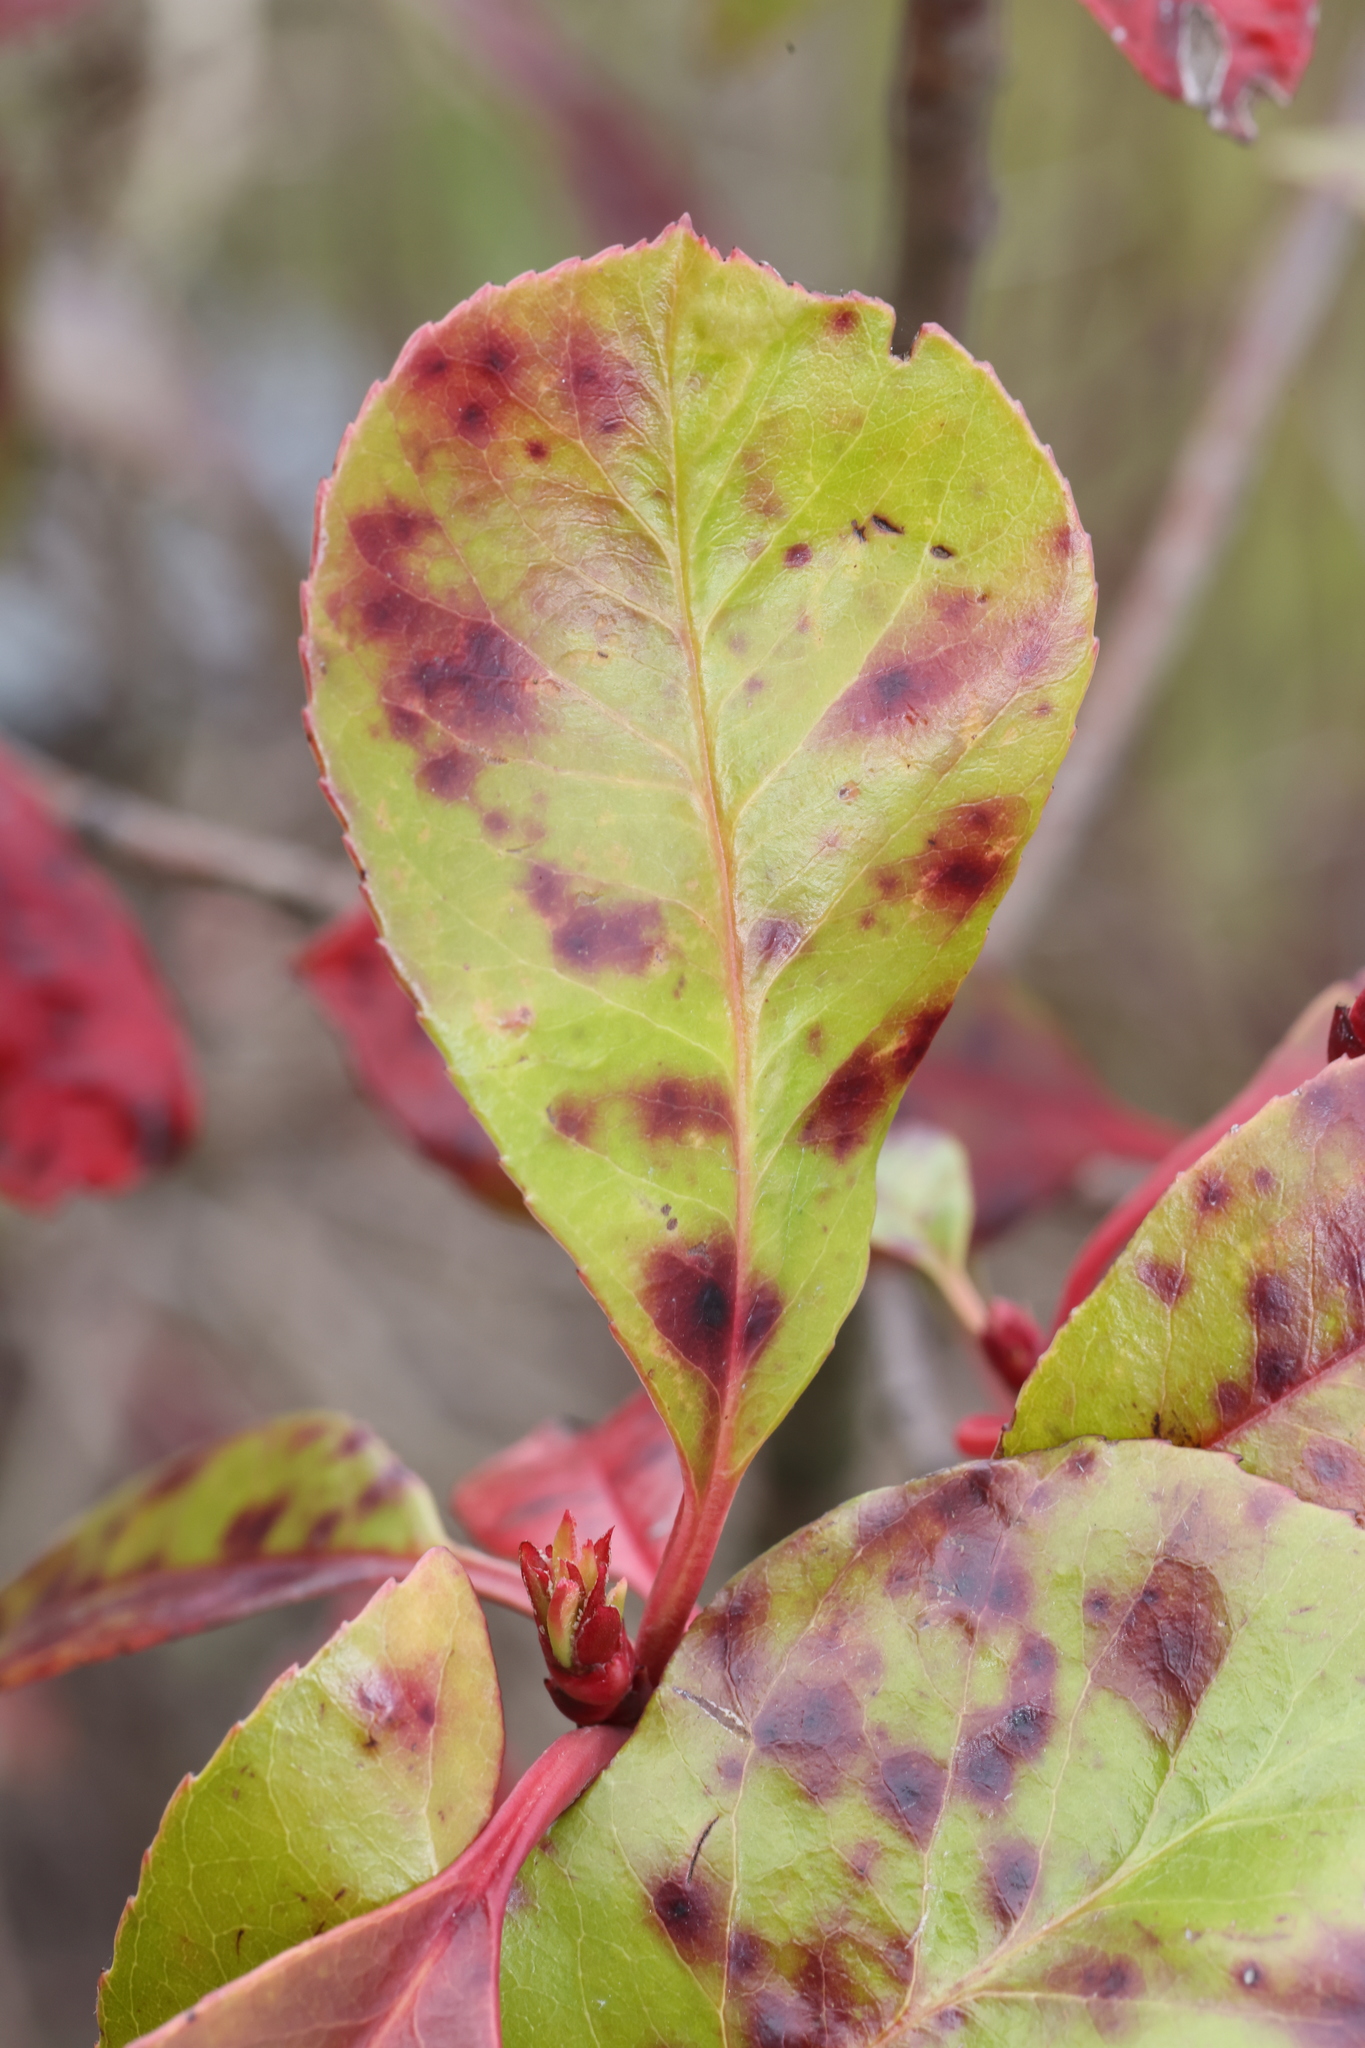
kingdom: Plantae
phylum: Tracheophyta
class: Magnoliopsida
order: Rosales
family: Rosaceae
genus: Photinia
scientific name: Photinia fraseri
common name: Fraser's photinia
